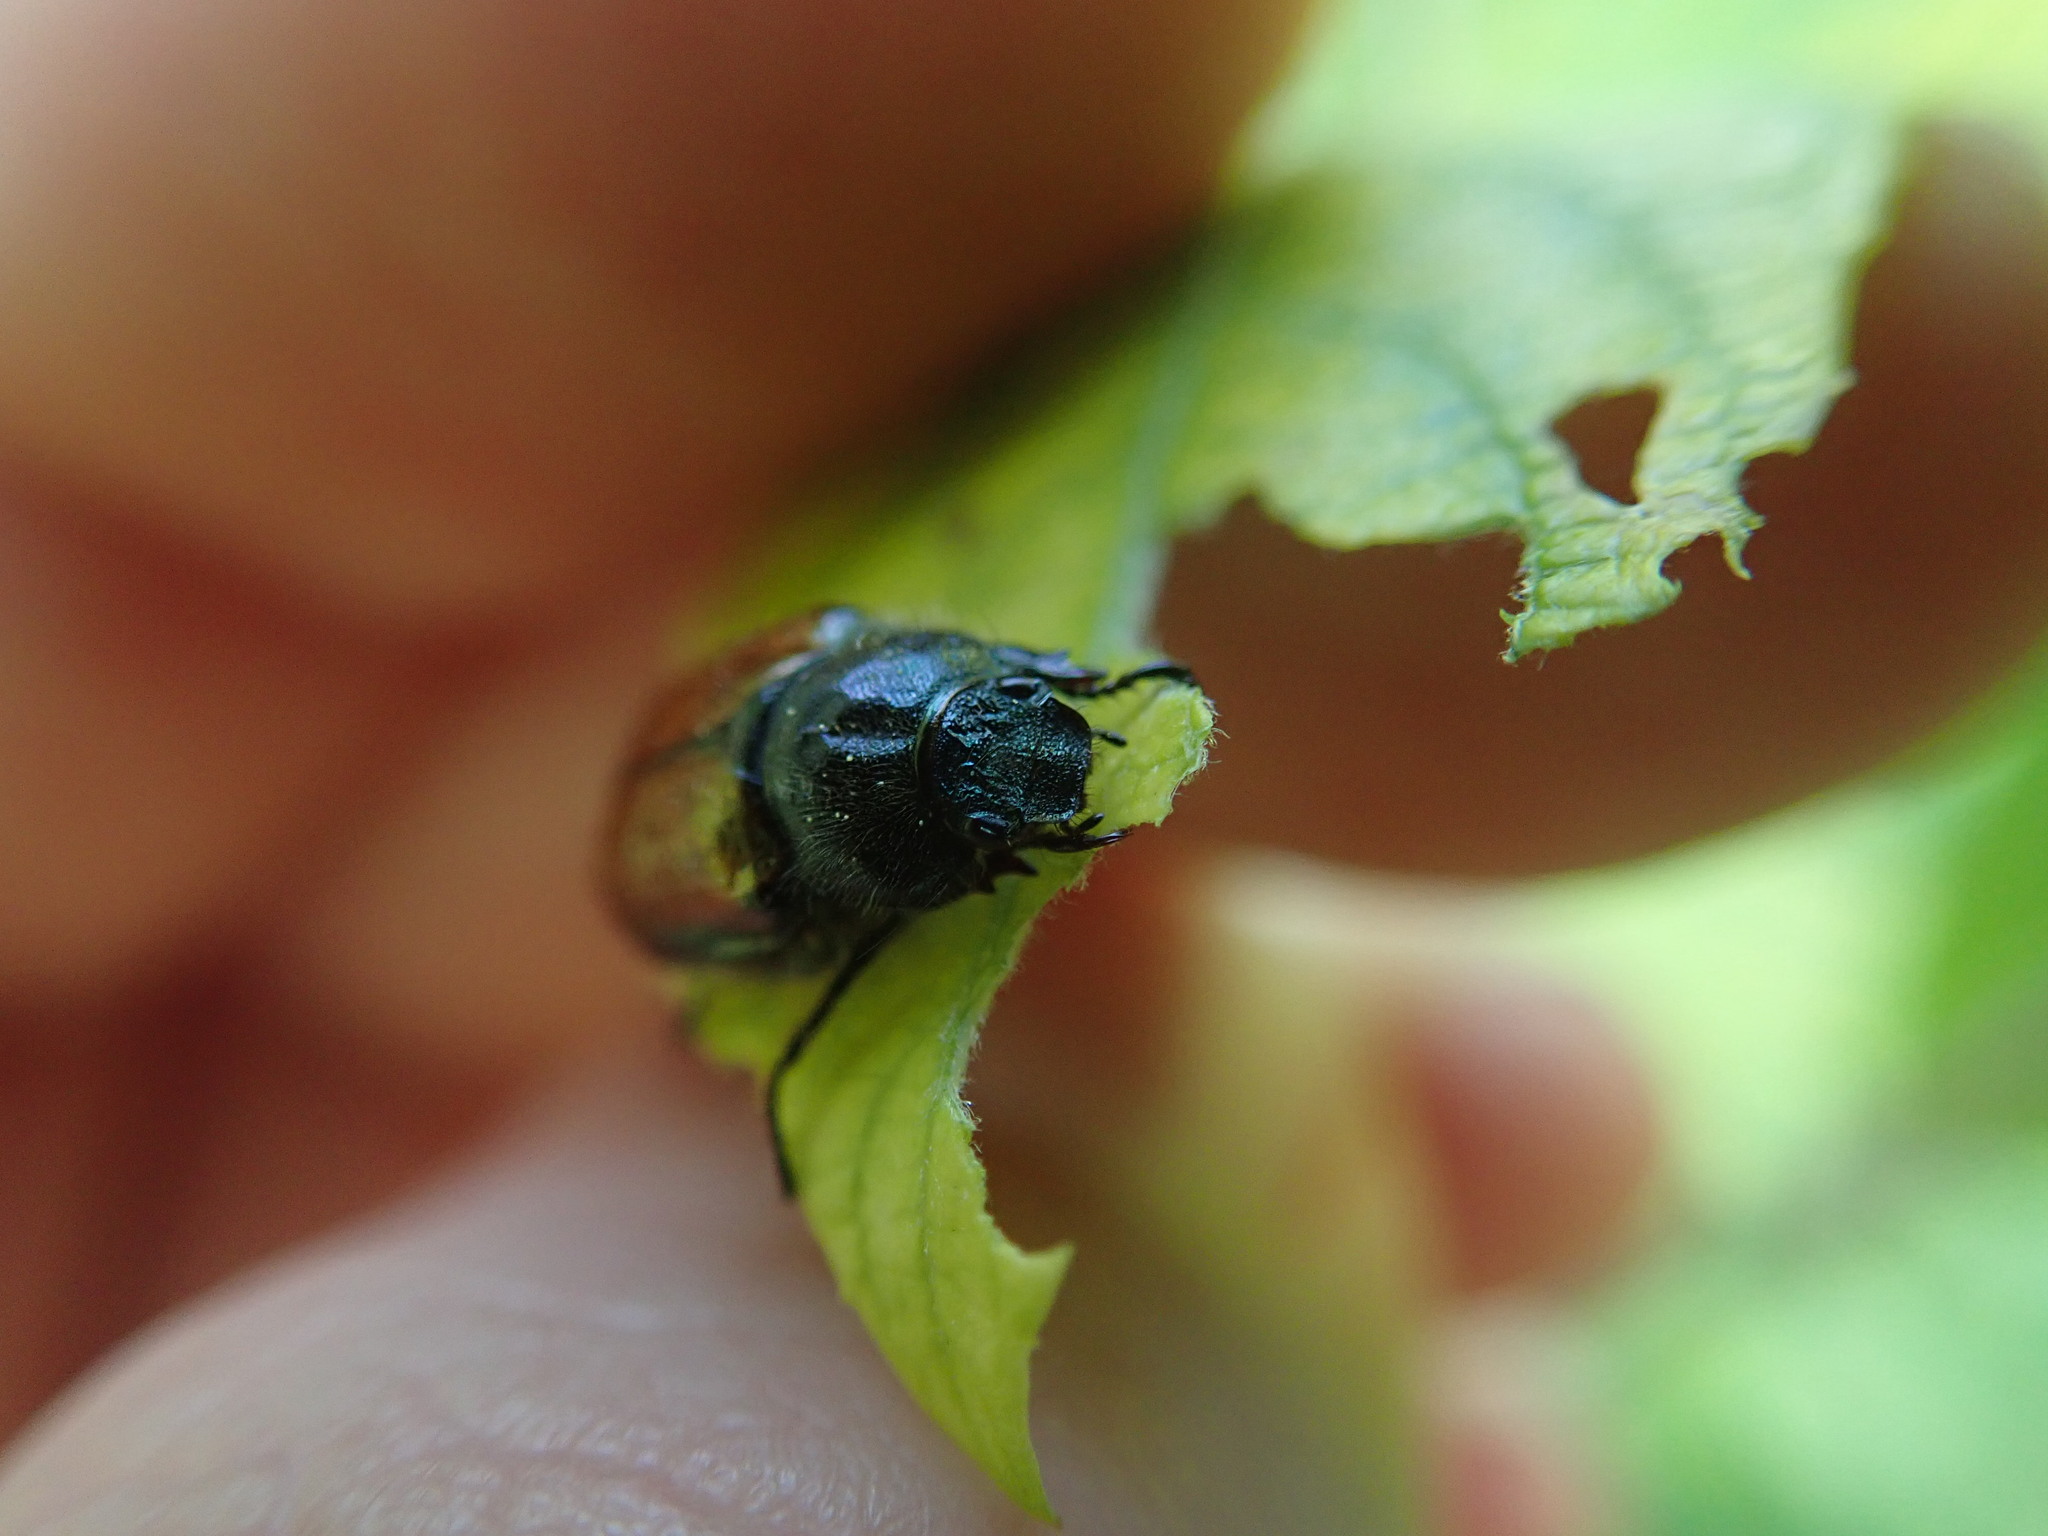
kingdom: Animalia
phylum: Arthropoda
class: Insecta
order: Coleoptera
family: Scarabaeidae
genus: Phyllopertha
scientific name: Phyllopertha horticola
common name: Garden chafer
